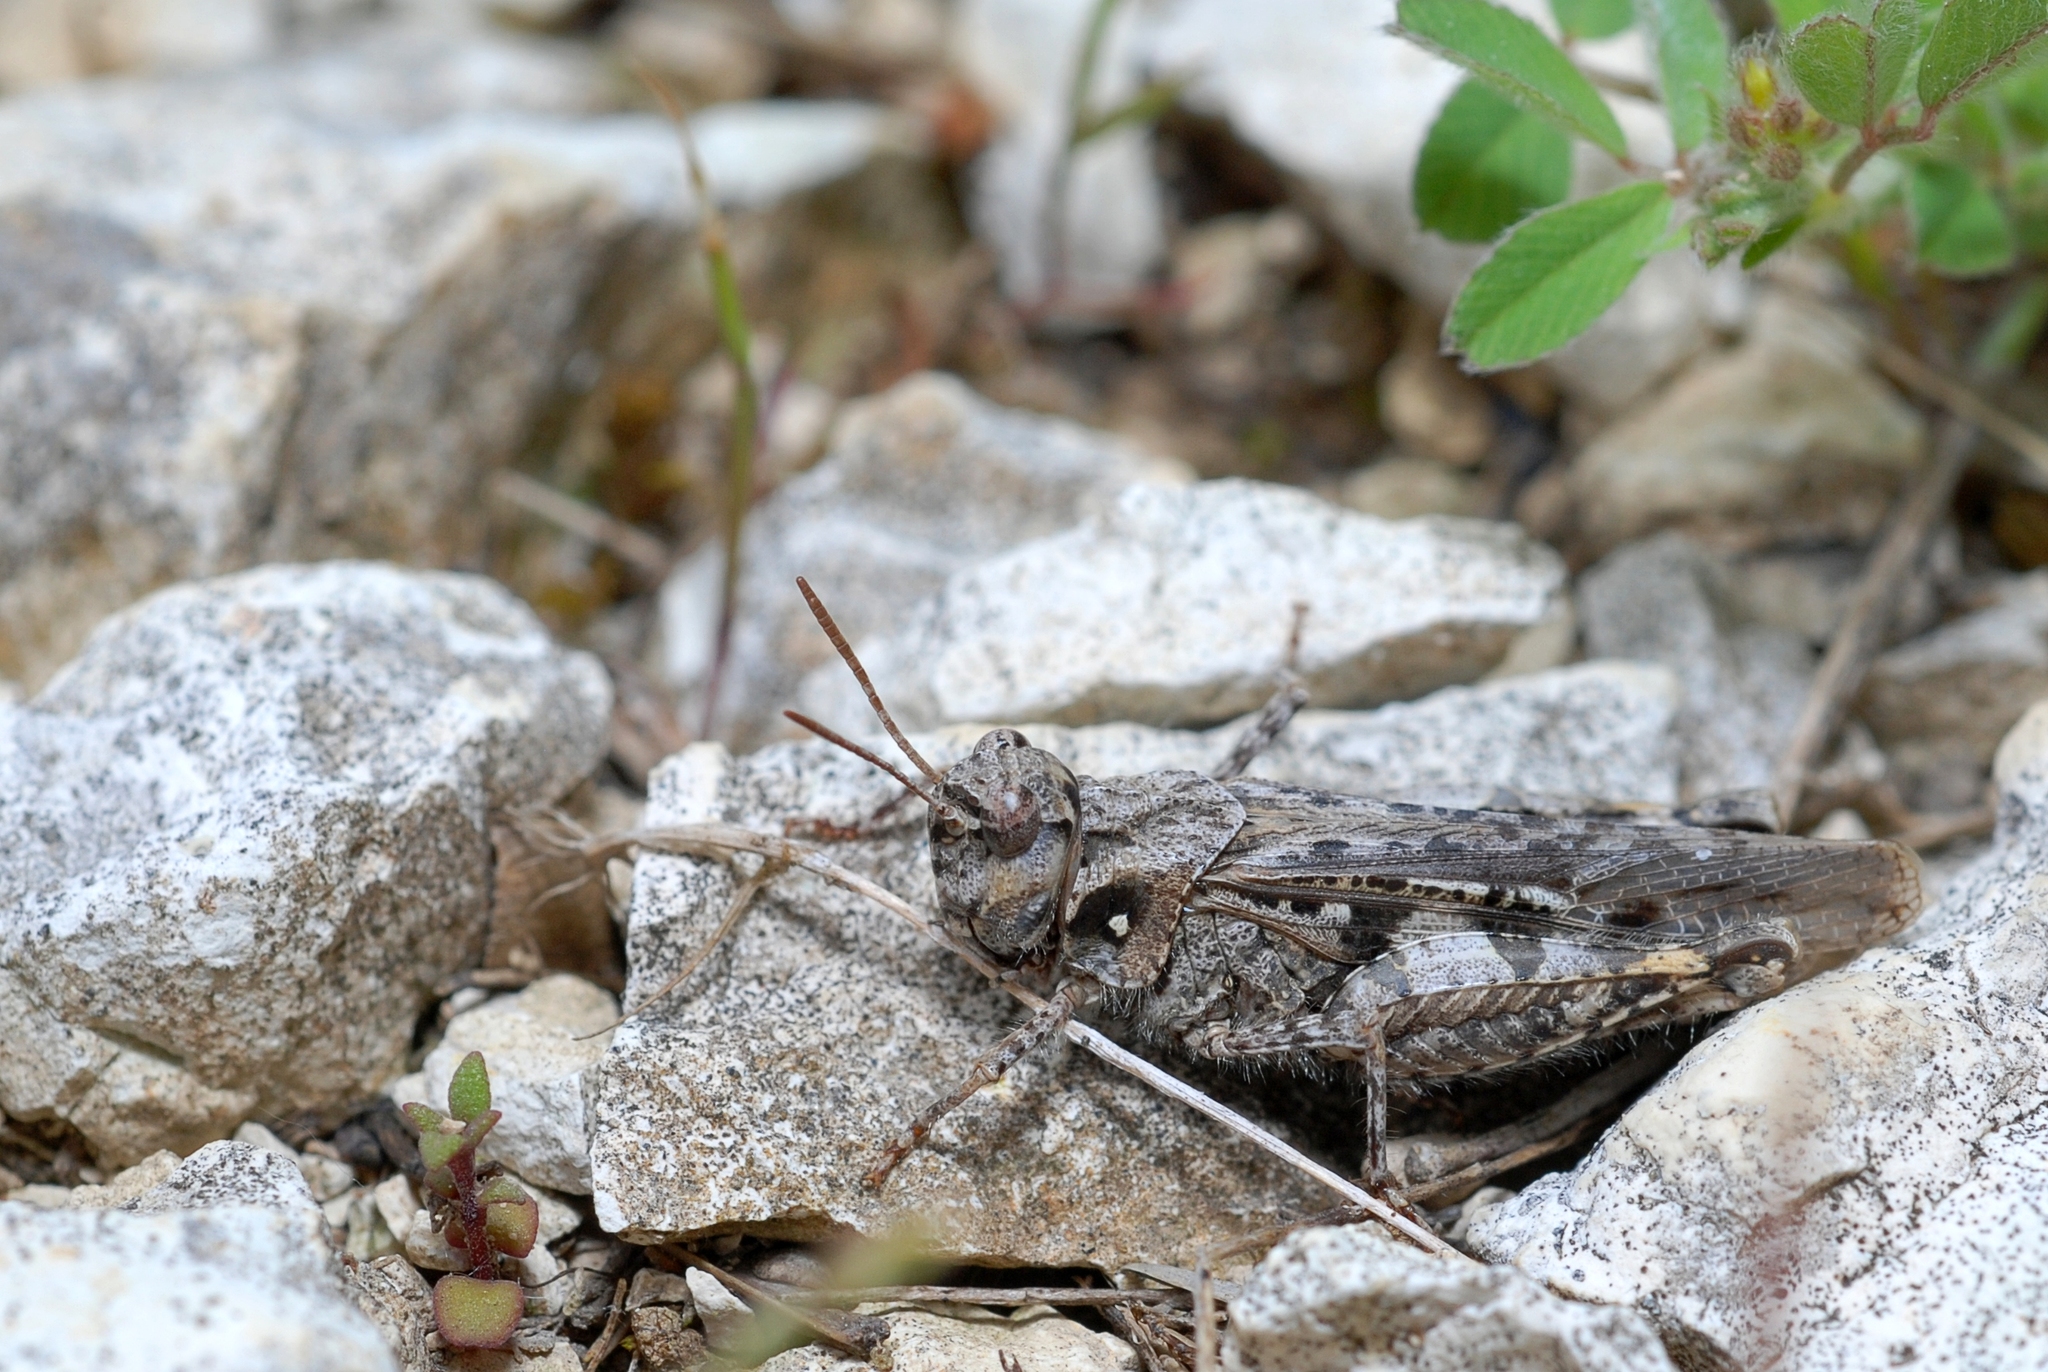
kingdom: Animalia
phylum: Arthropoda
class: Insecta
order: Orthoptera
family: Acrididae
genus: Acrotylus
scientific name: Acrotylus fischeri
